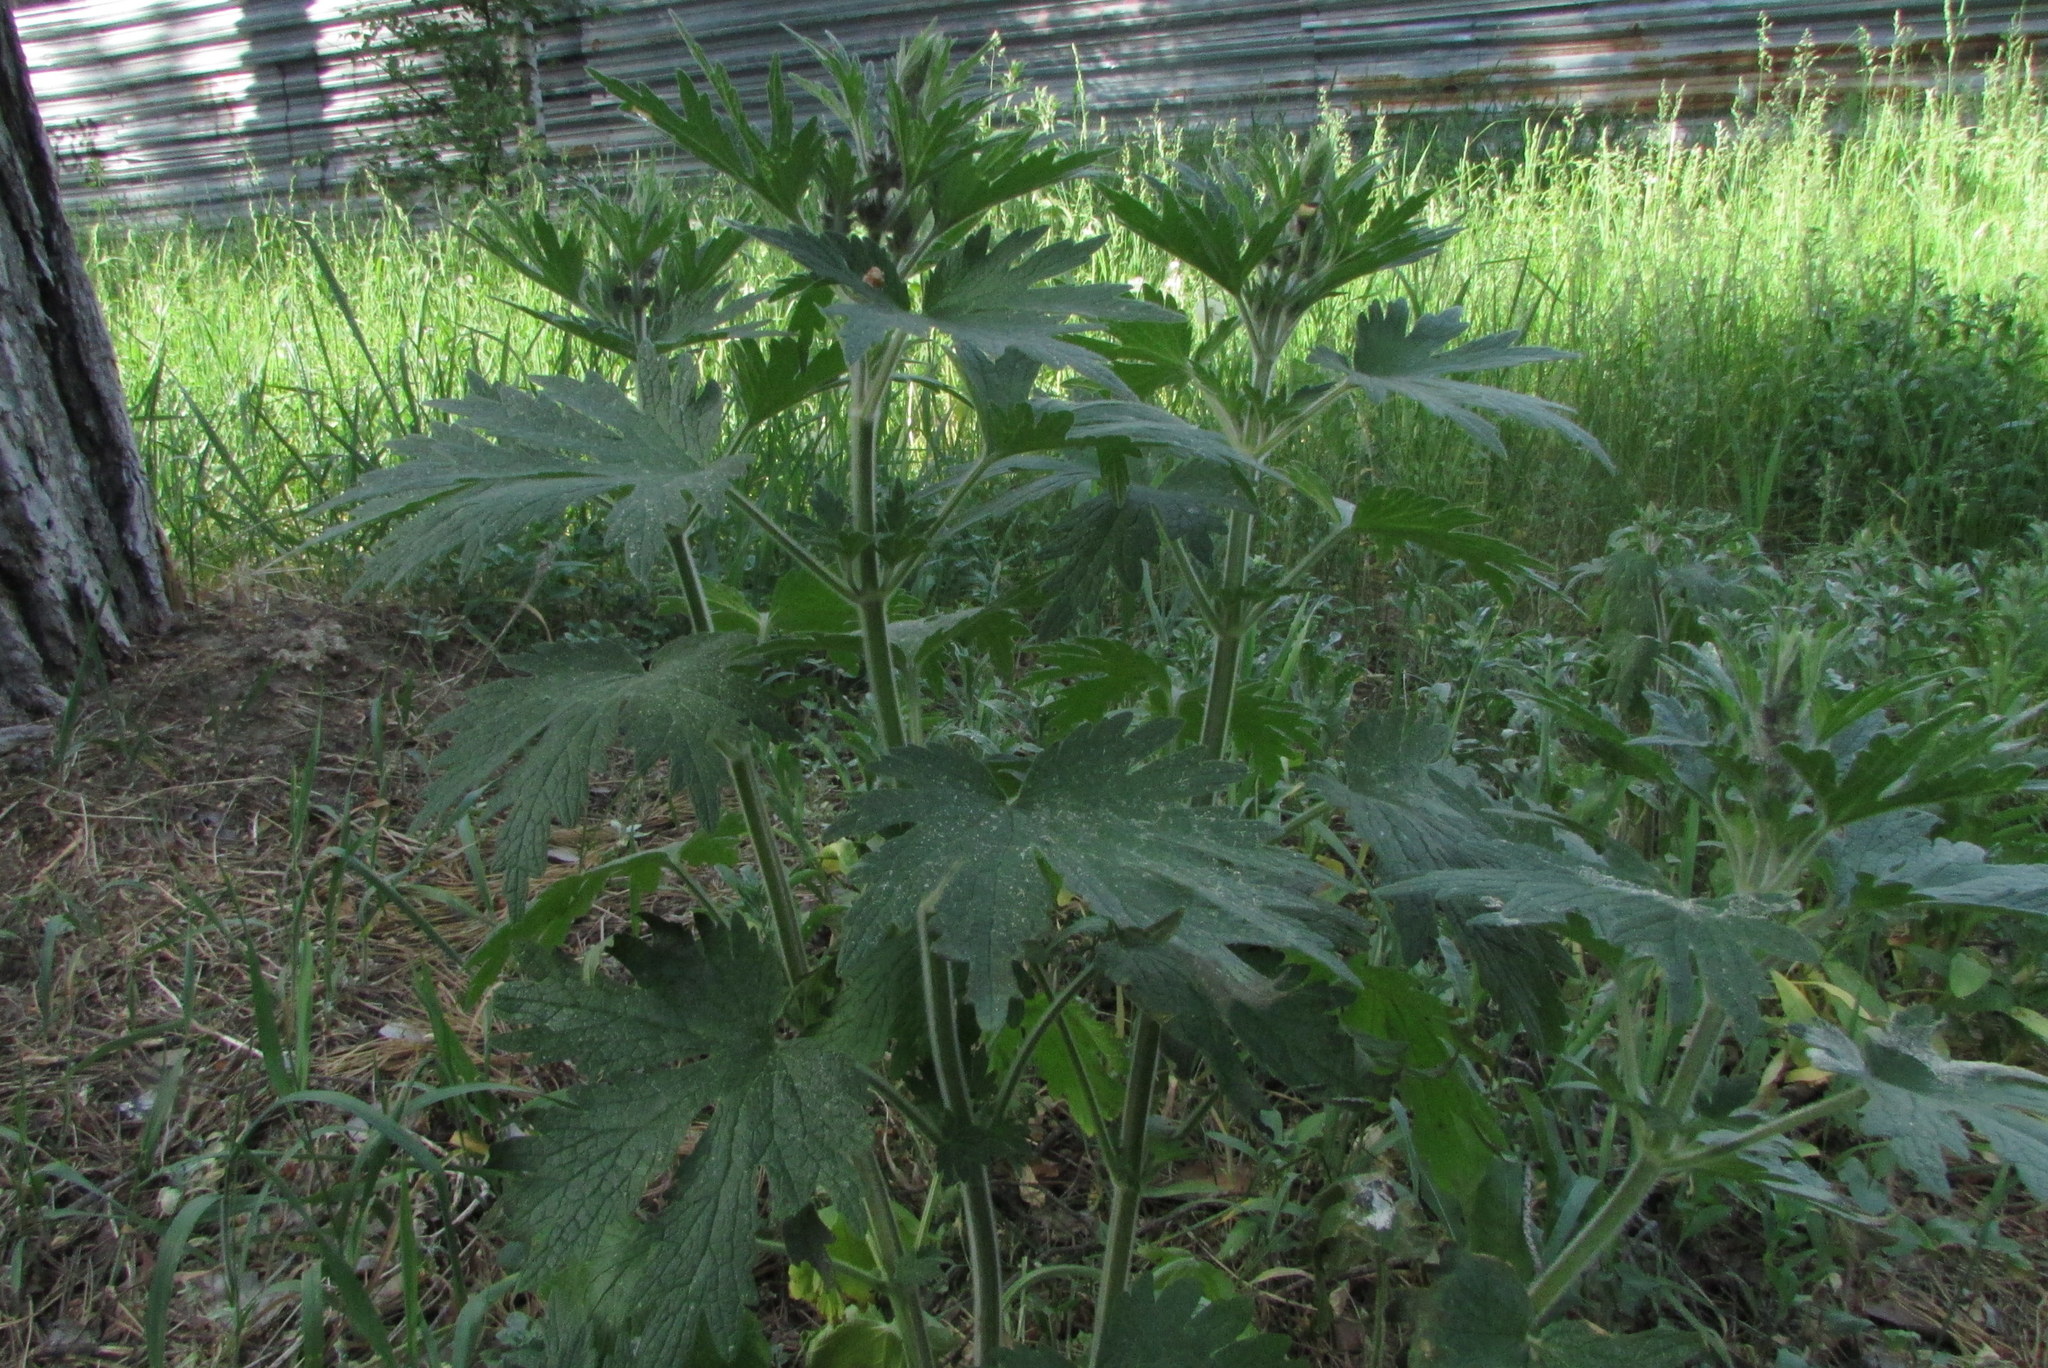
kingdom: Plantae
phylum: Tracheophyta
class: Magnoliopsida
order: Lamiales
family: Lamiaceae
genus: Leonurus
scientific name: Leonurus quinquelobatus
